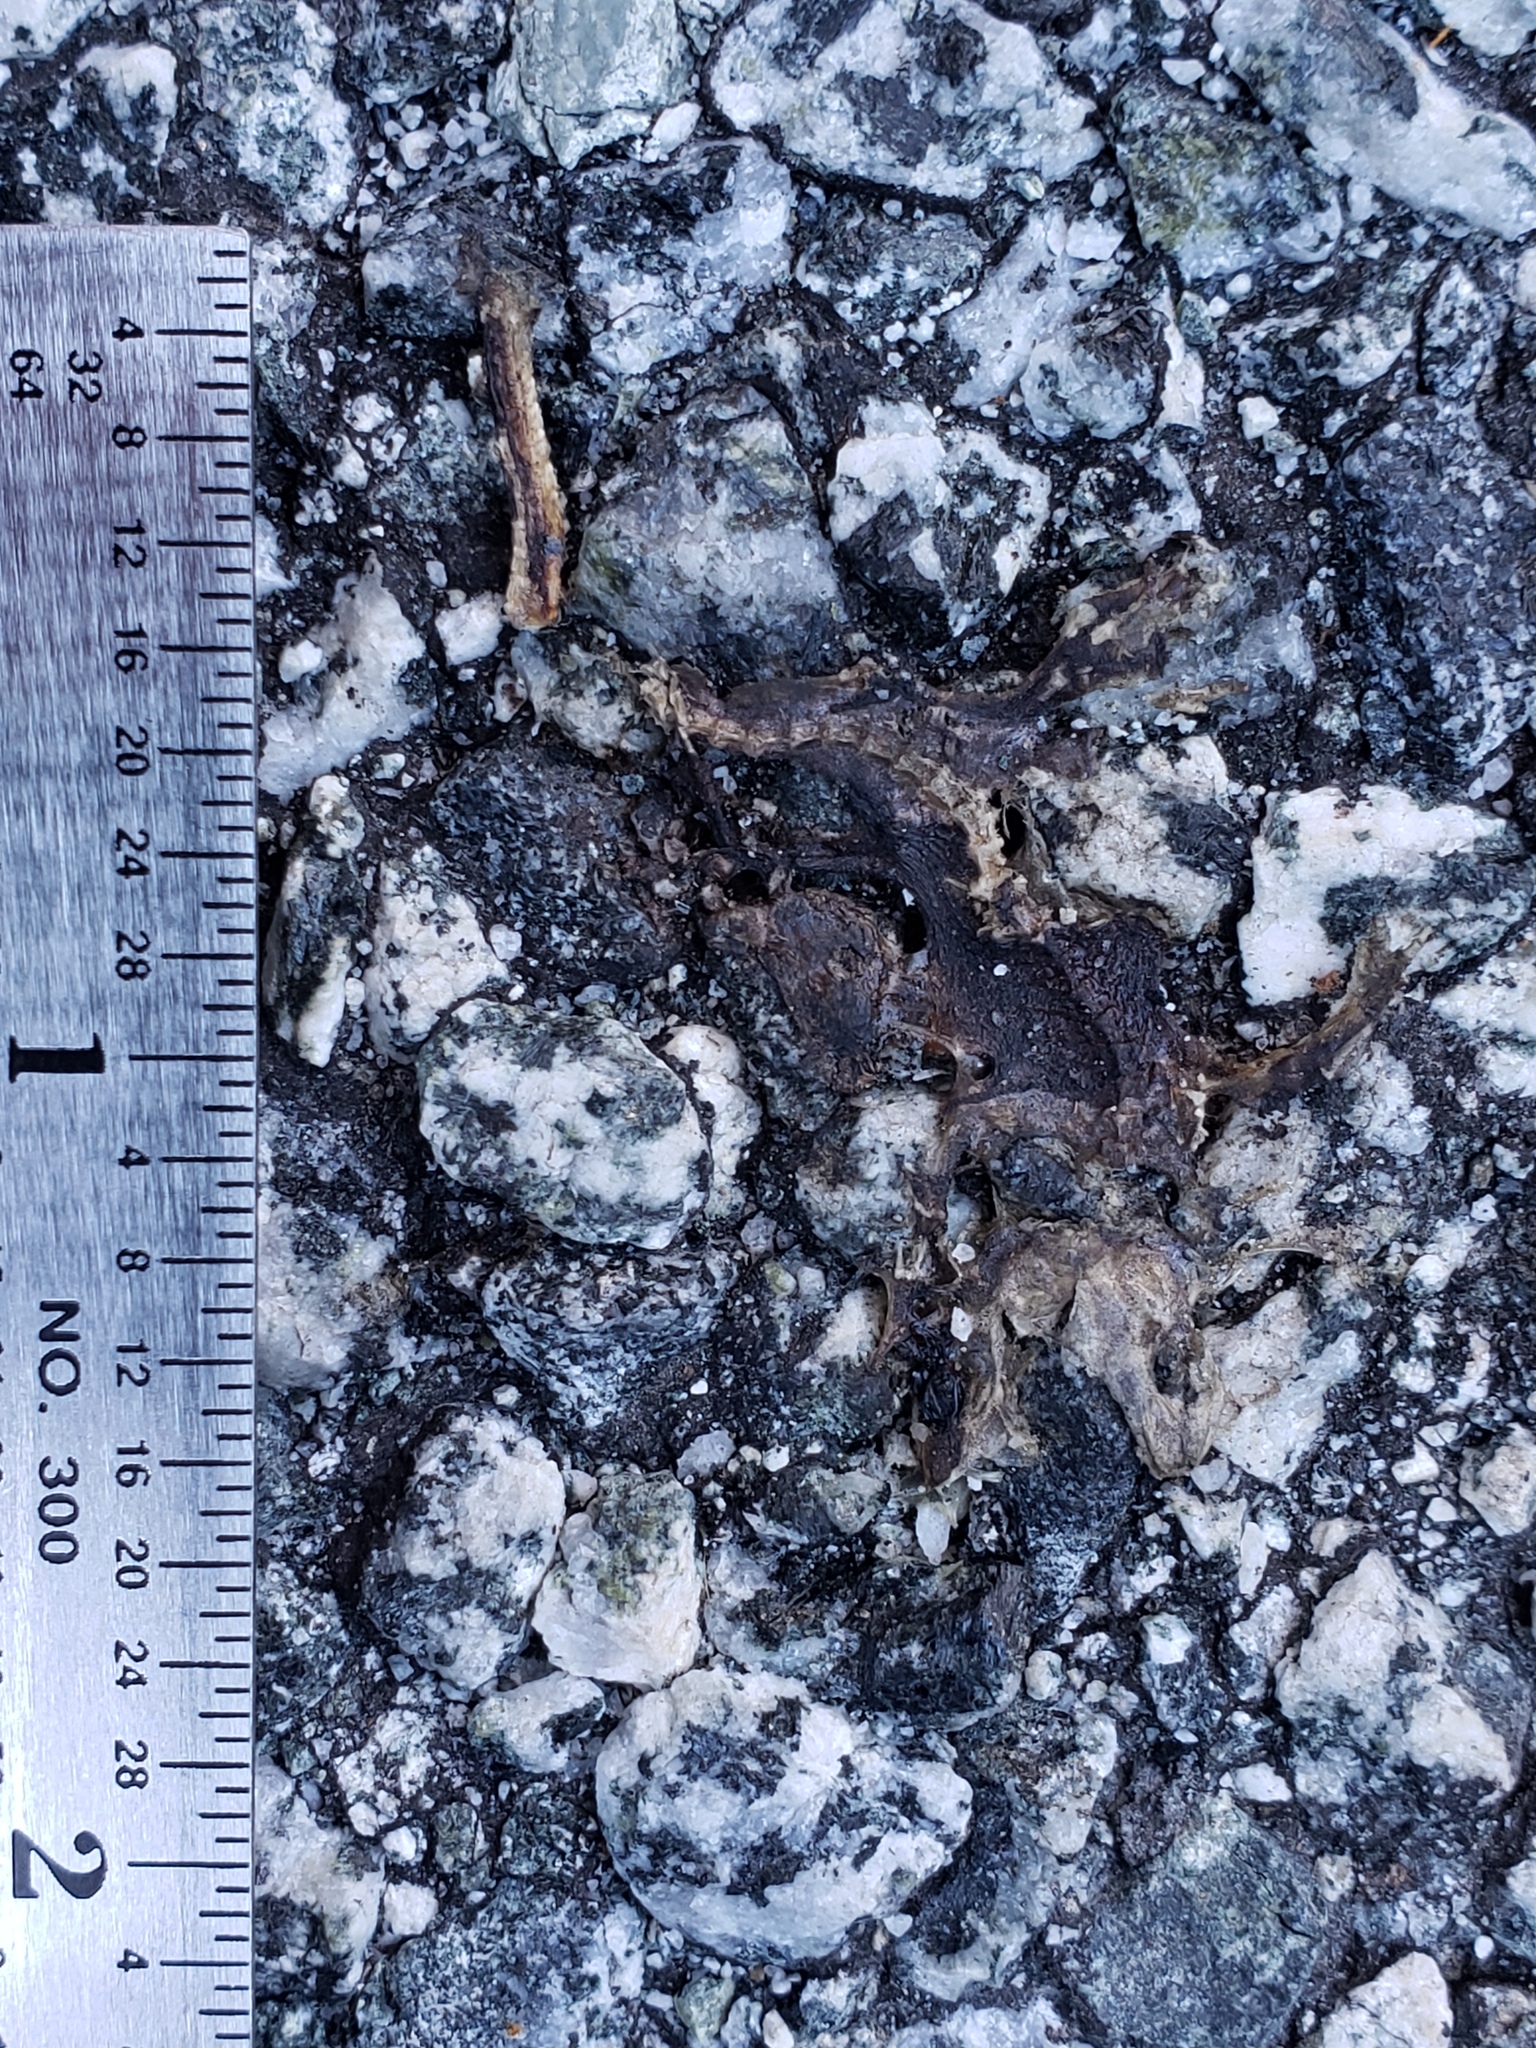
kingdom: Animalia
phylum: Chordata
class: Amphibia
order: Caudata
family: Salamandridae
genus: Taricha
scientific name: Taricha
